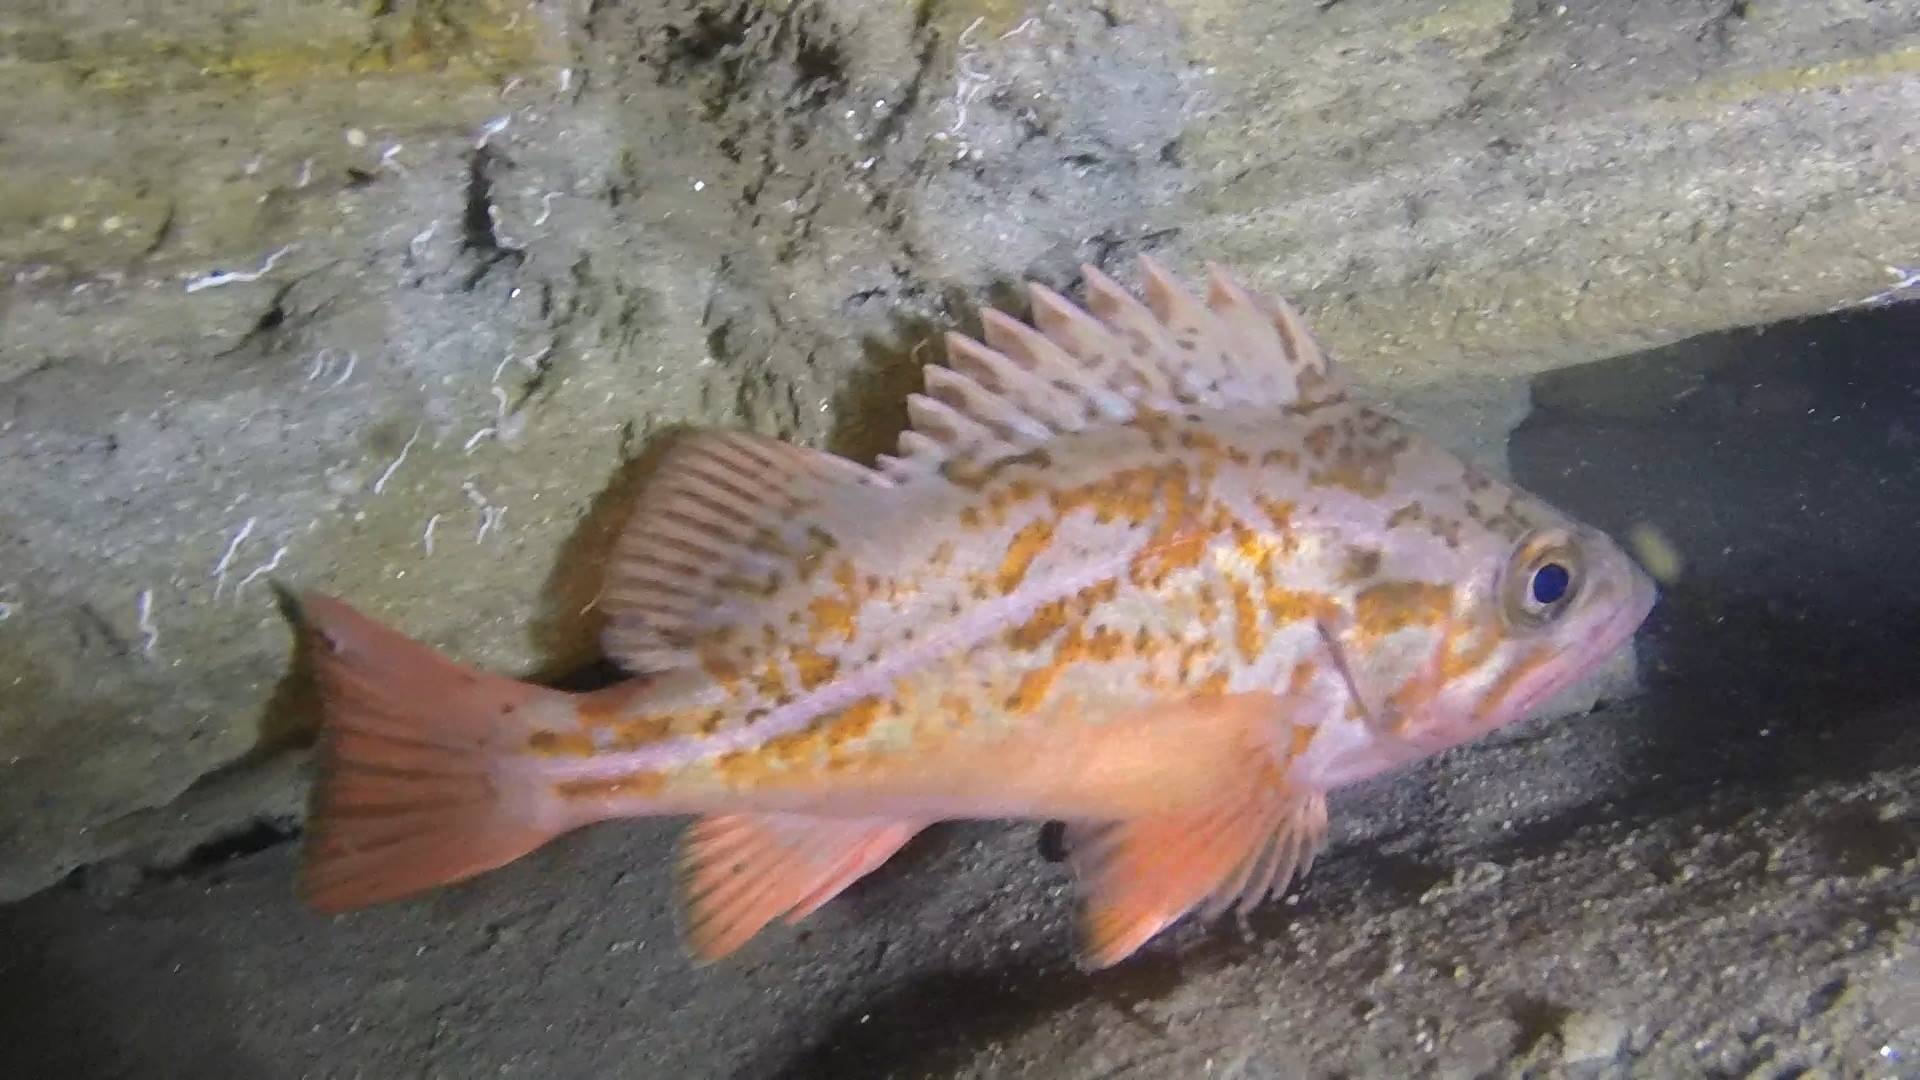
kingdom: Animalia
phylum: Chordata
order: Scorpaeniformes
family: Sebastidae
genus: Sebastes
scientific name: Sebastes miniatus
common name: Vermilion rockfish
